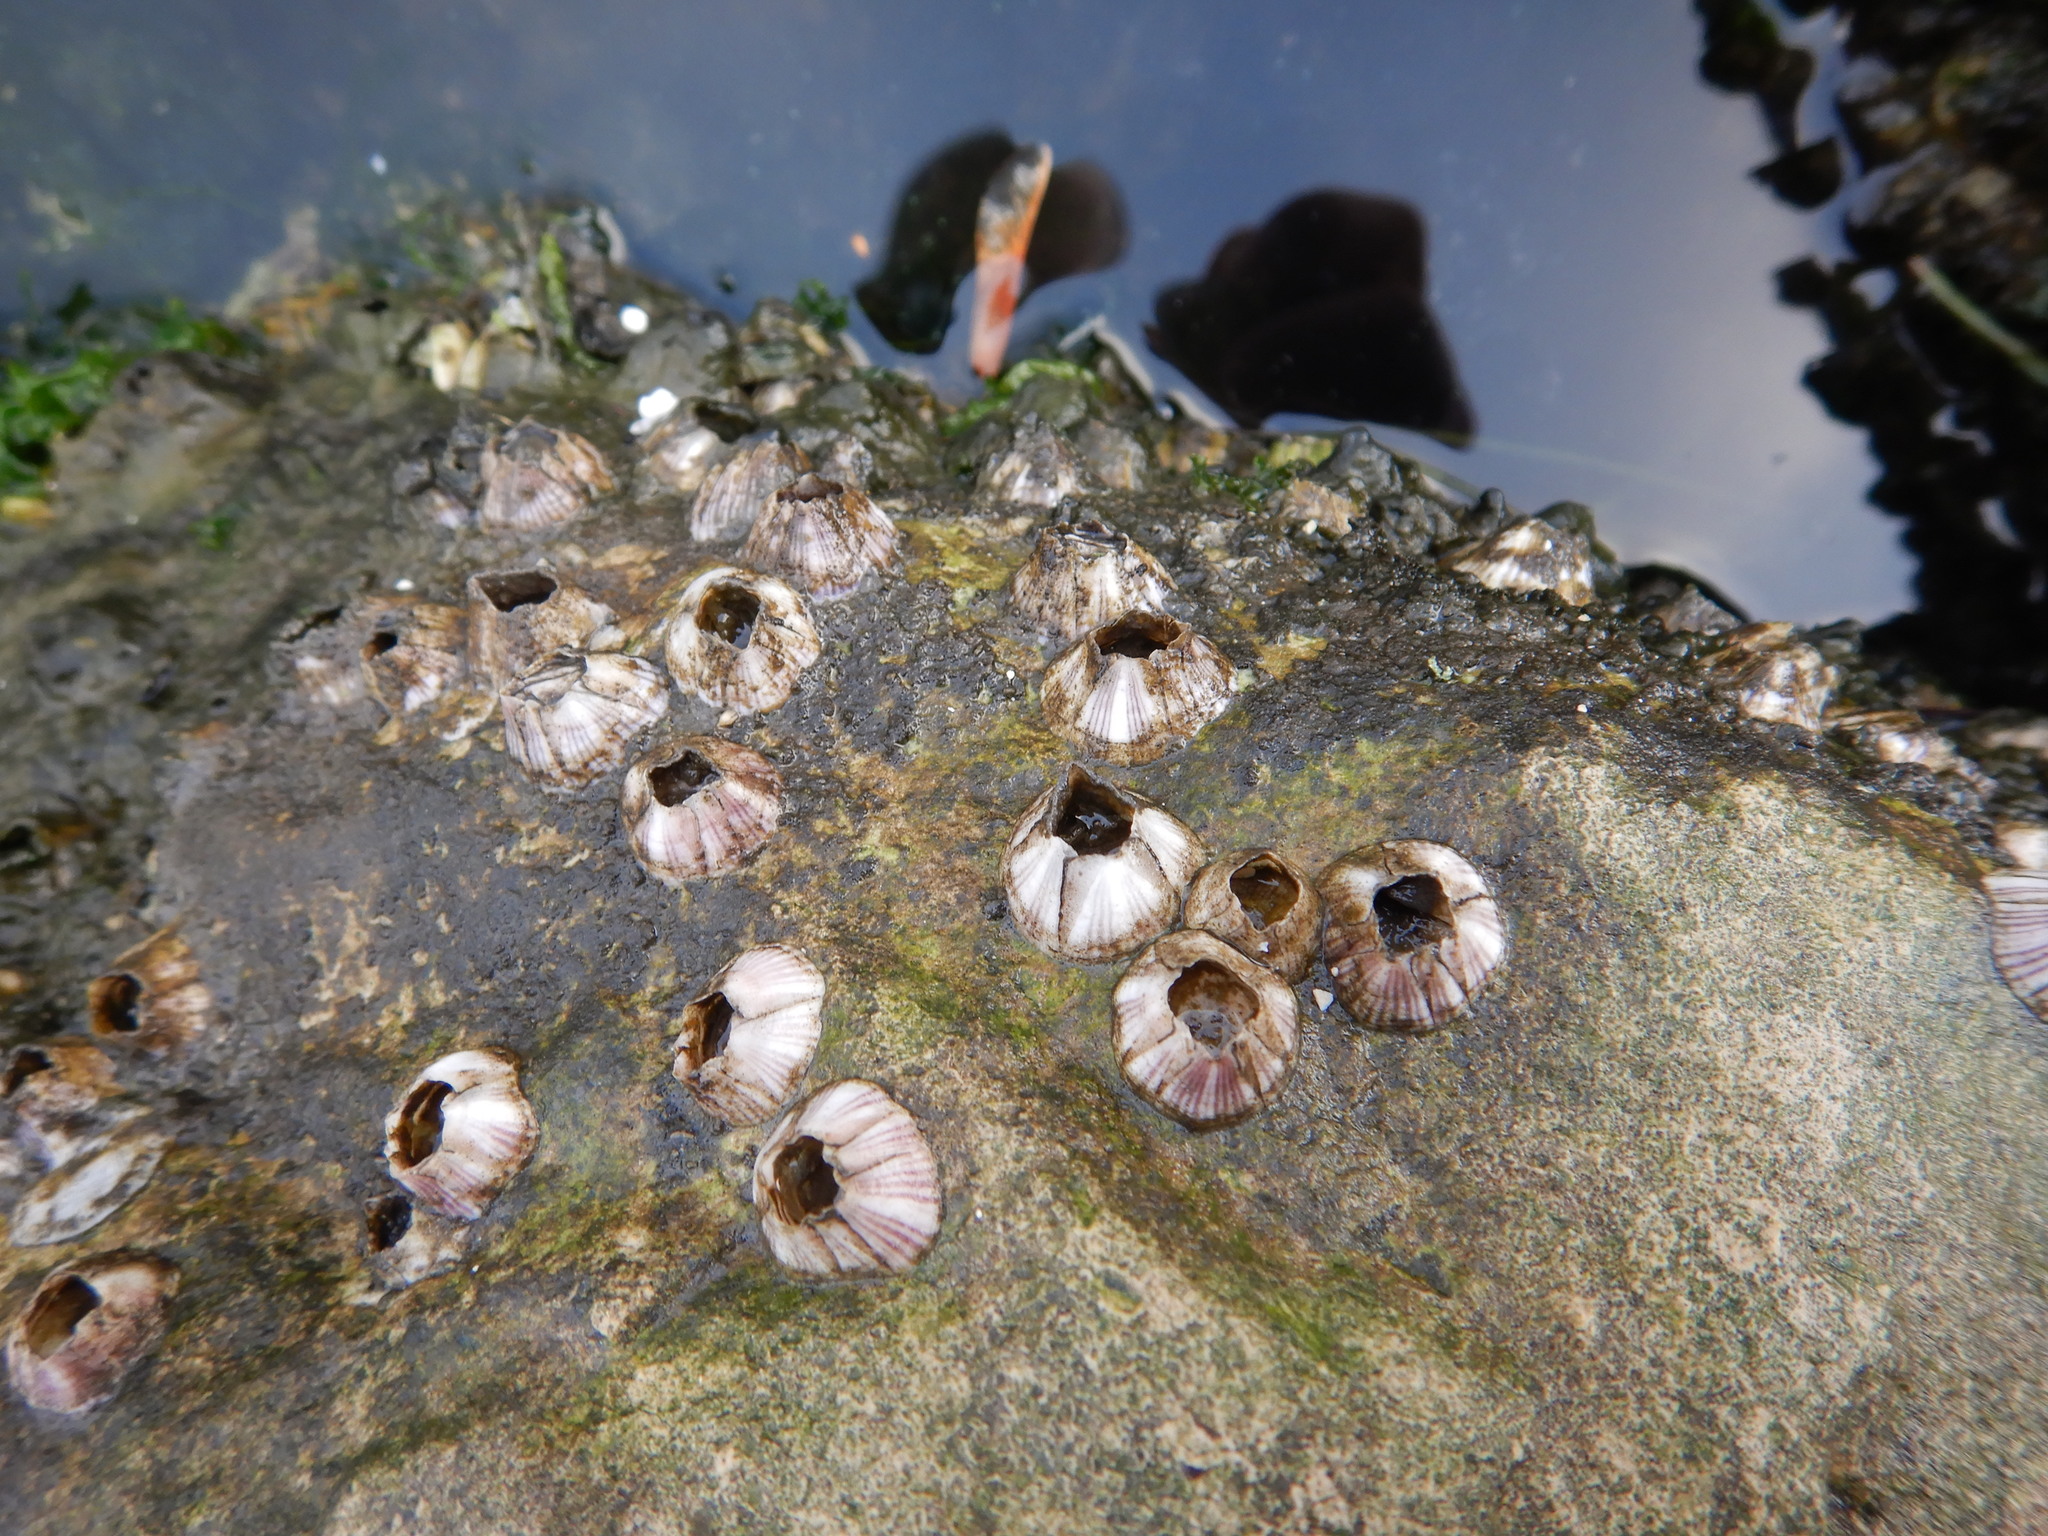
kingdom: Animalia
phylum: Arthropoda
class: Maxillopoda
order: Sessilia
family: Balanidae
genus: Amphibalanus
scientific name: Amphibalanus amphitrite
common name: Striped acorn barnacle
